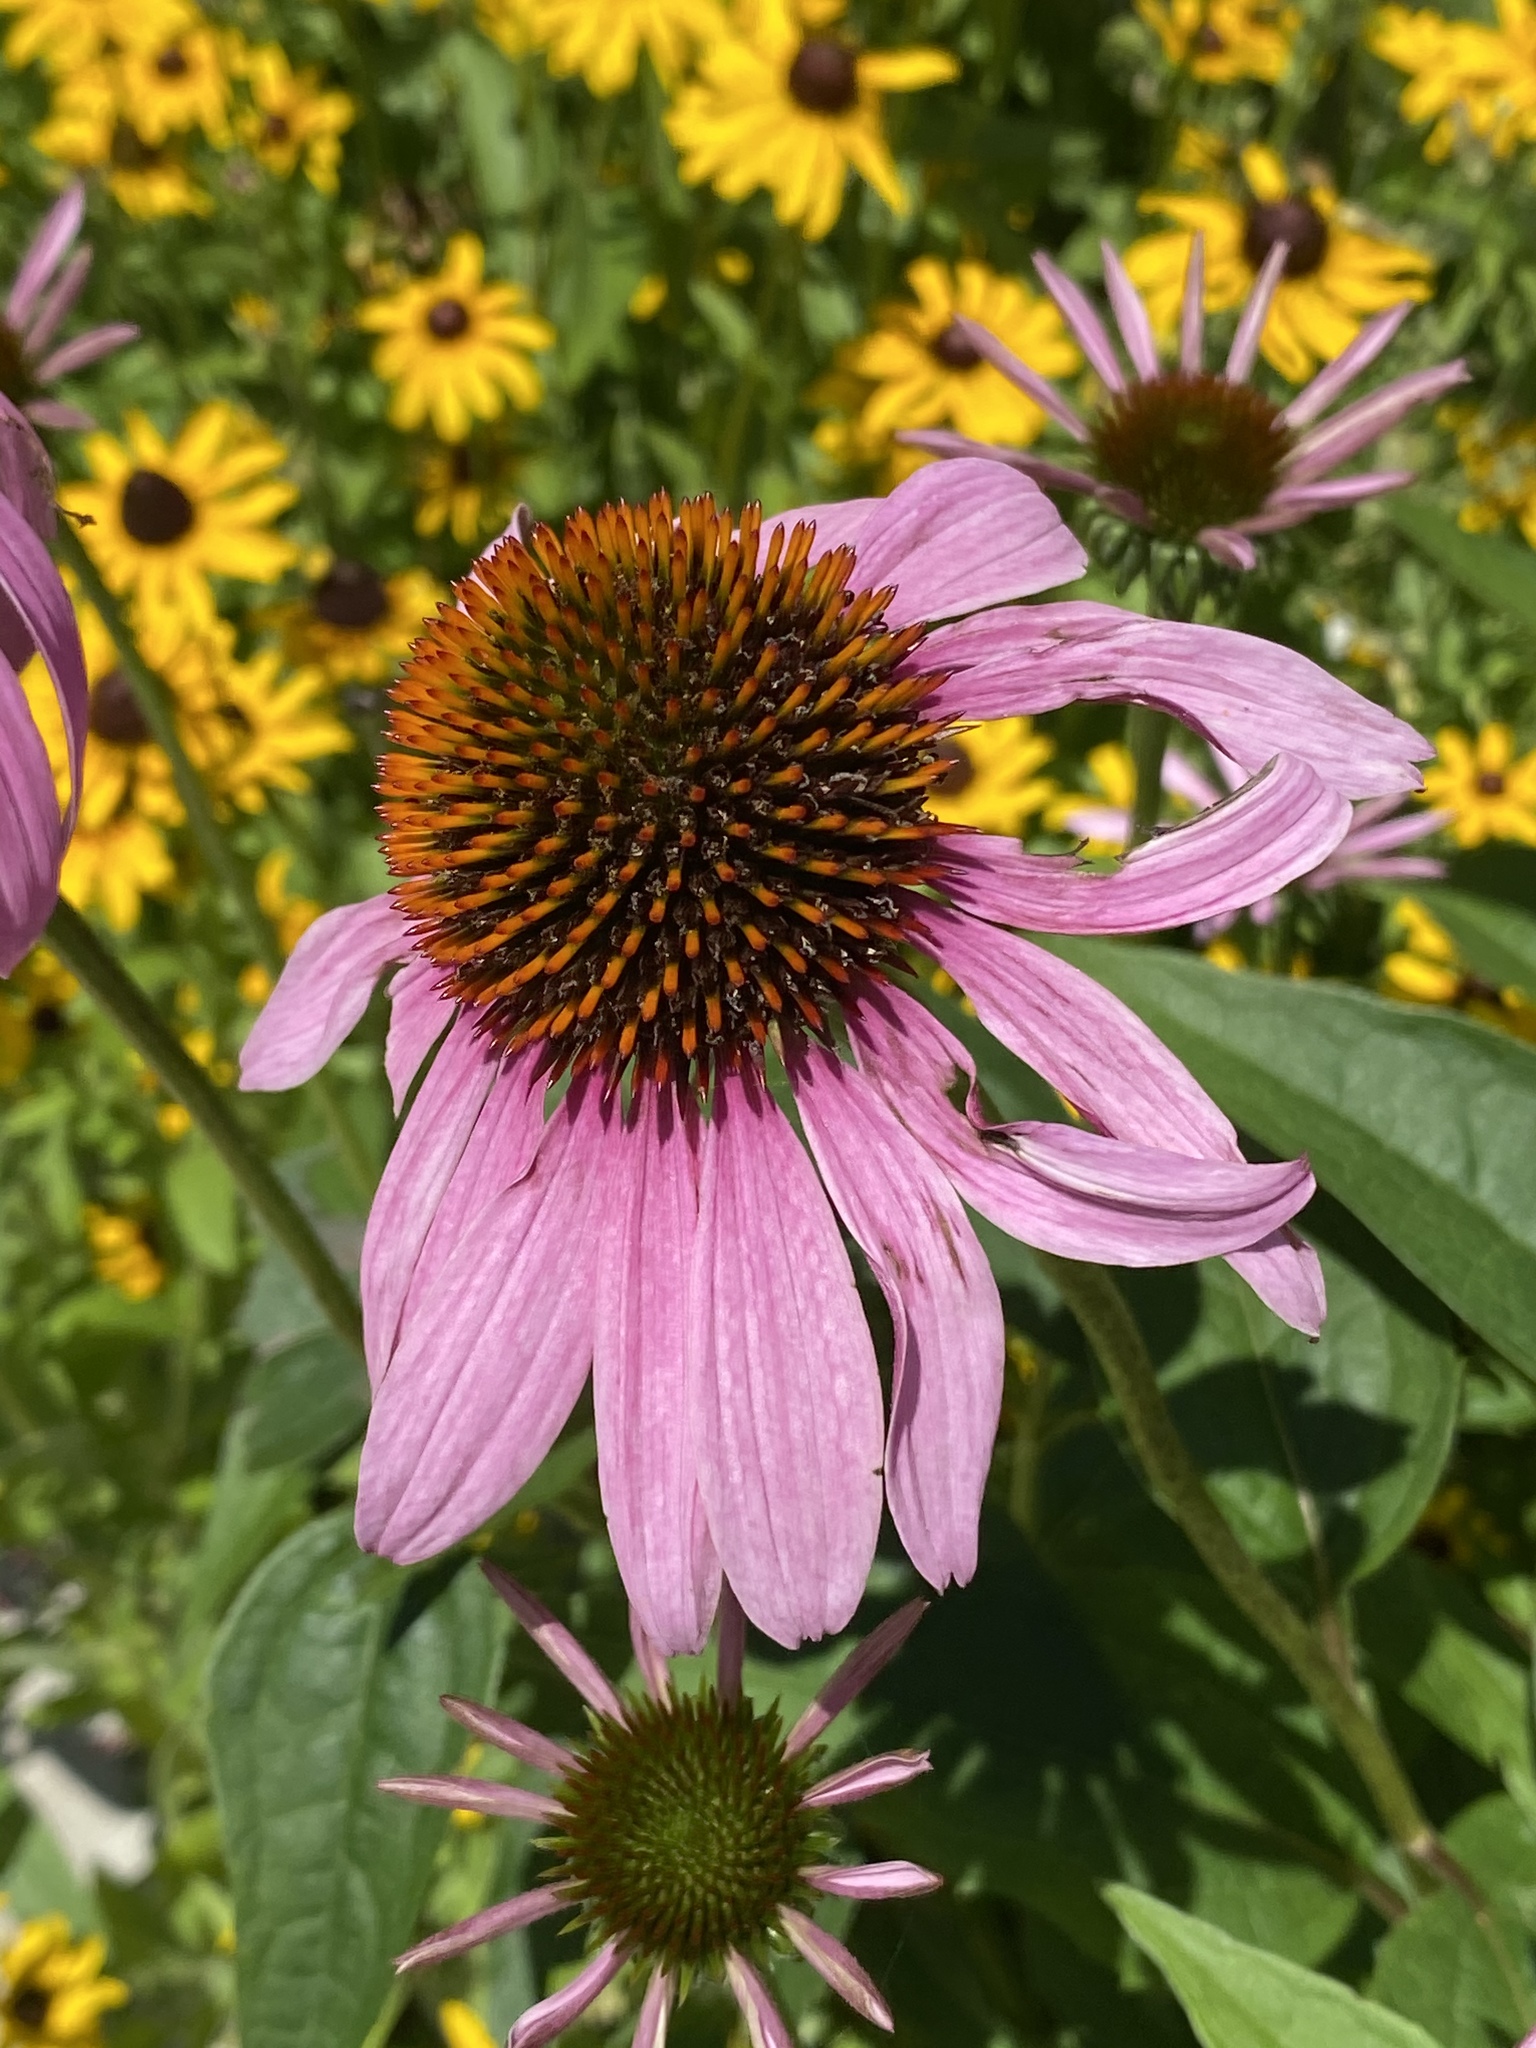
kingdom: Plantae
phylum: Tracheophyta
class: Magnoliopsida
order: Asterales
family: Asteraceae
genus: Echinacea
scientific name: Echinacea purpurea
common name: Broad-leaved purple coneflower
